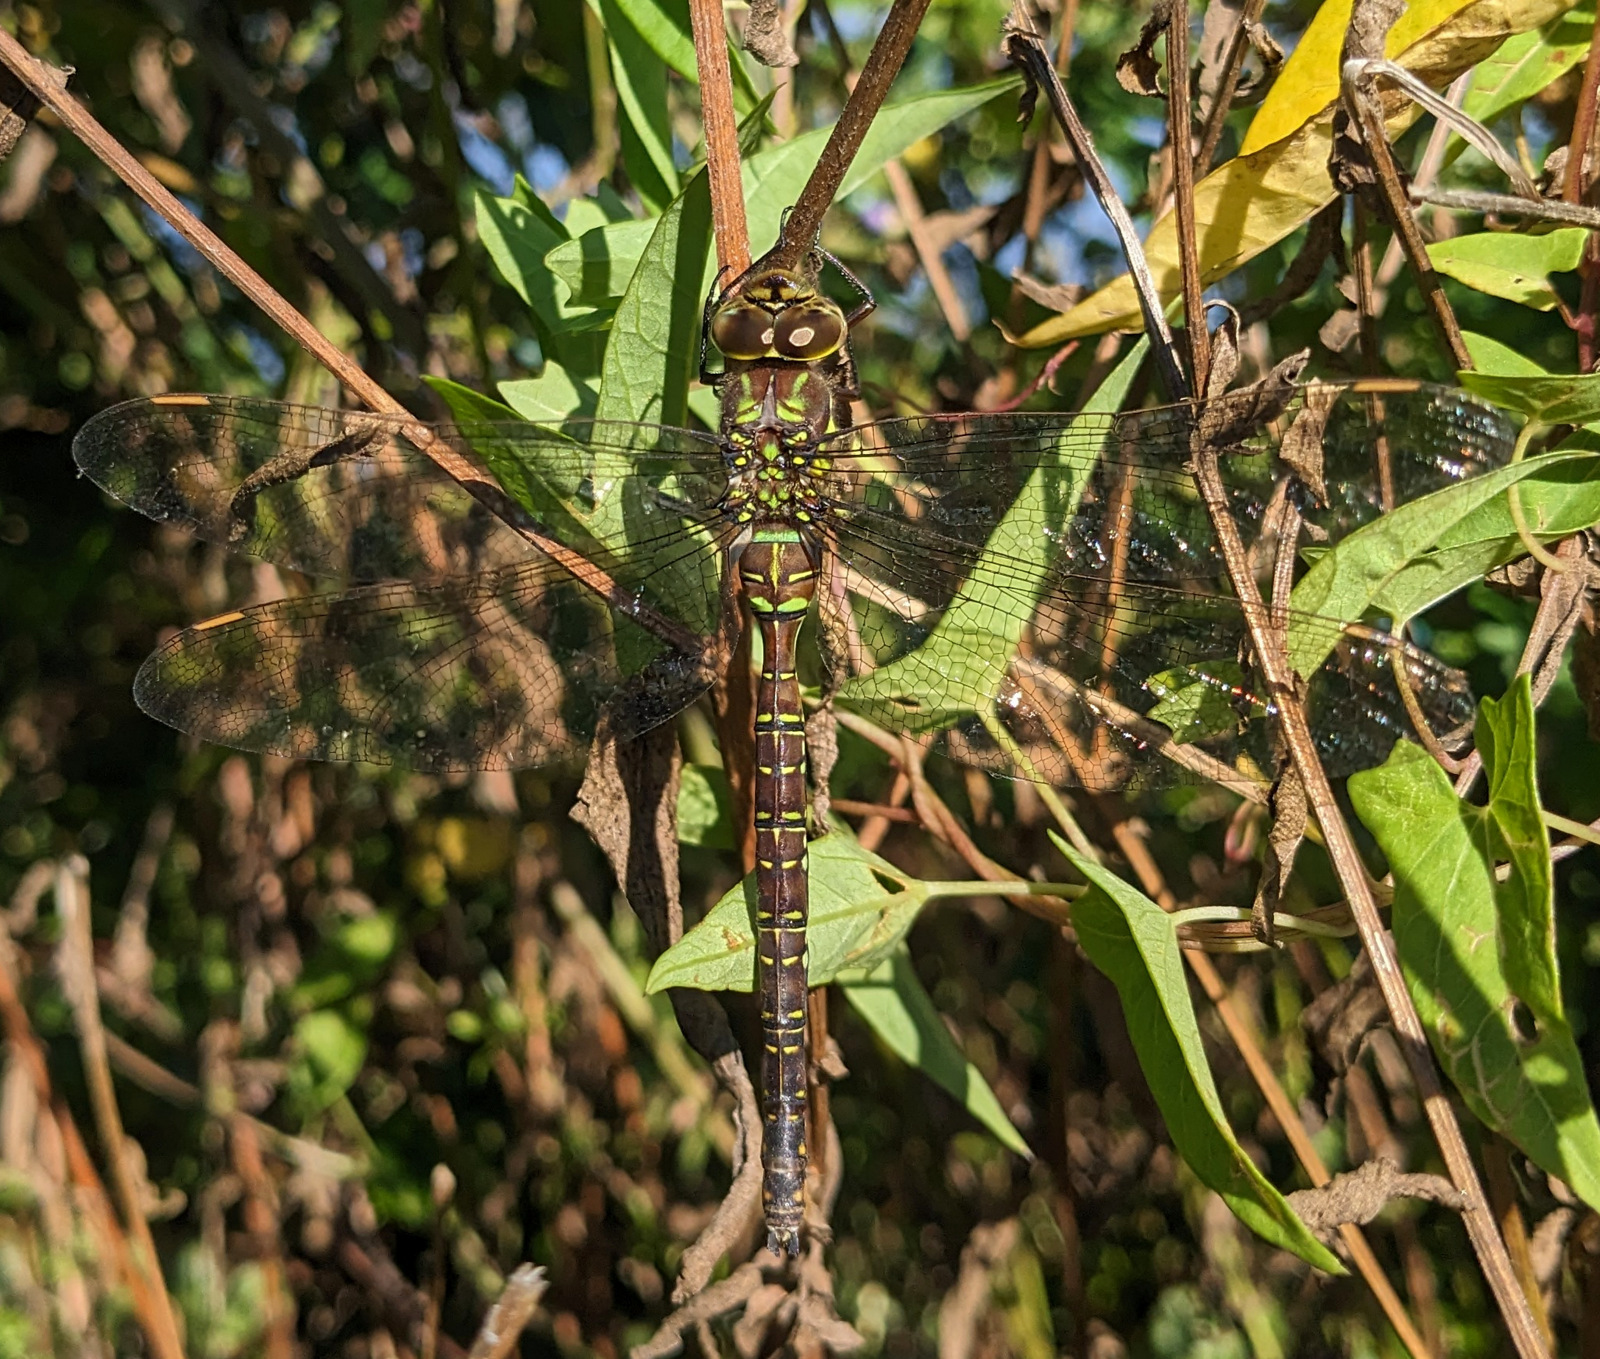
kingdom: Animalia
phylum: Arthropoda
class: Insecta
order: Odonata
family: Aeshnidae
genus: Aeshna
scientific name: Aeshna umbrosa
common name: Shadow darner
